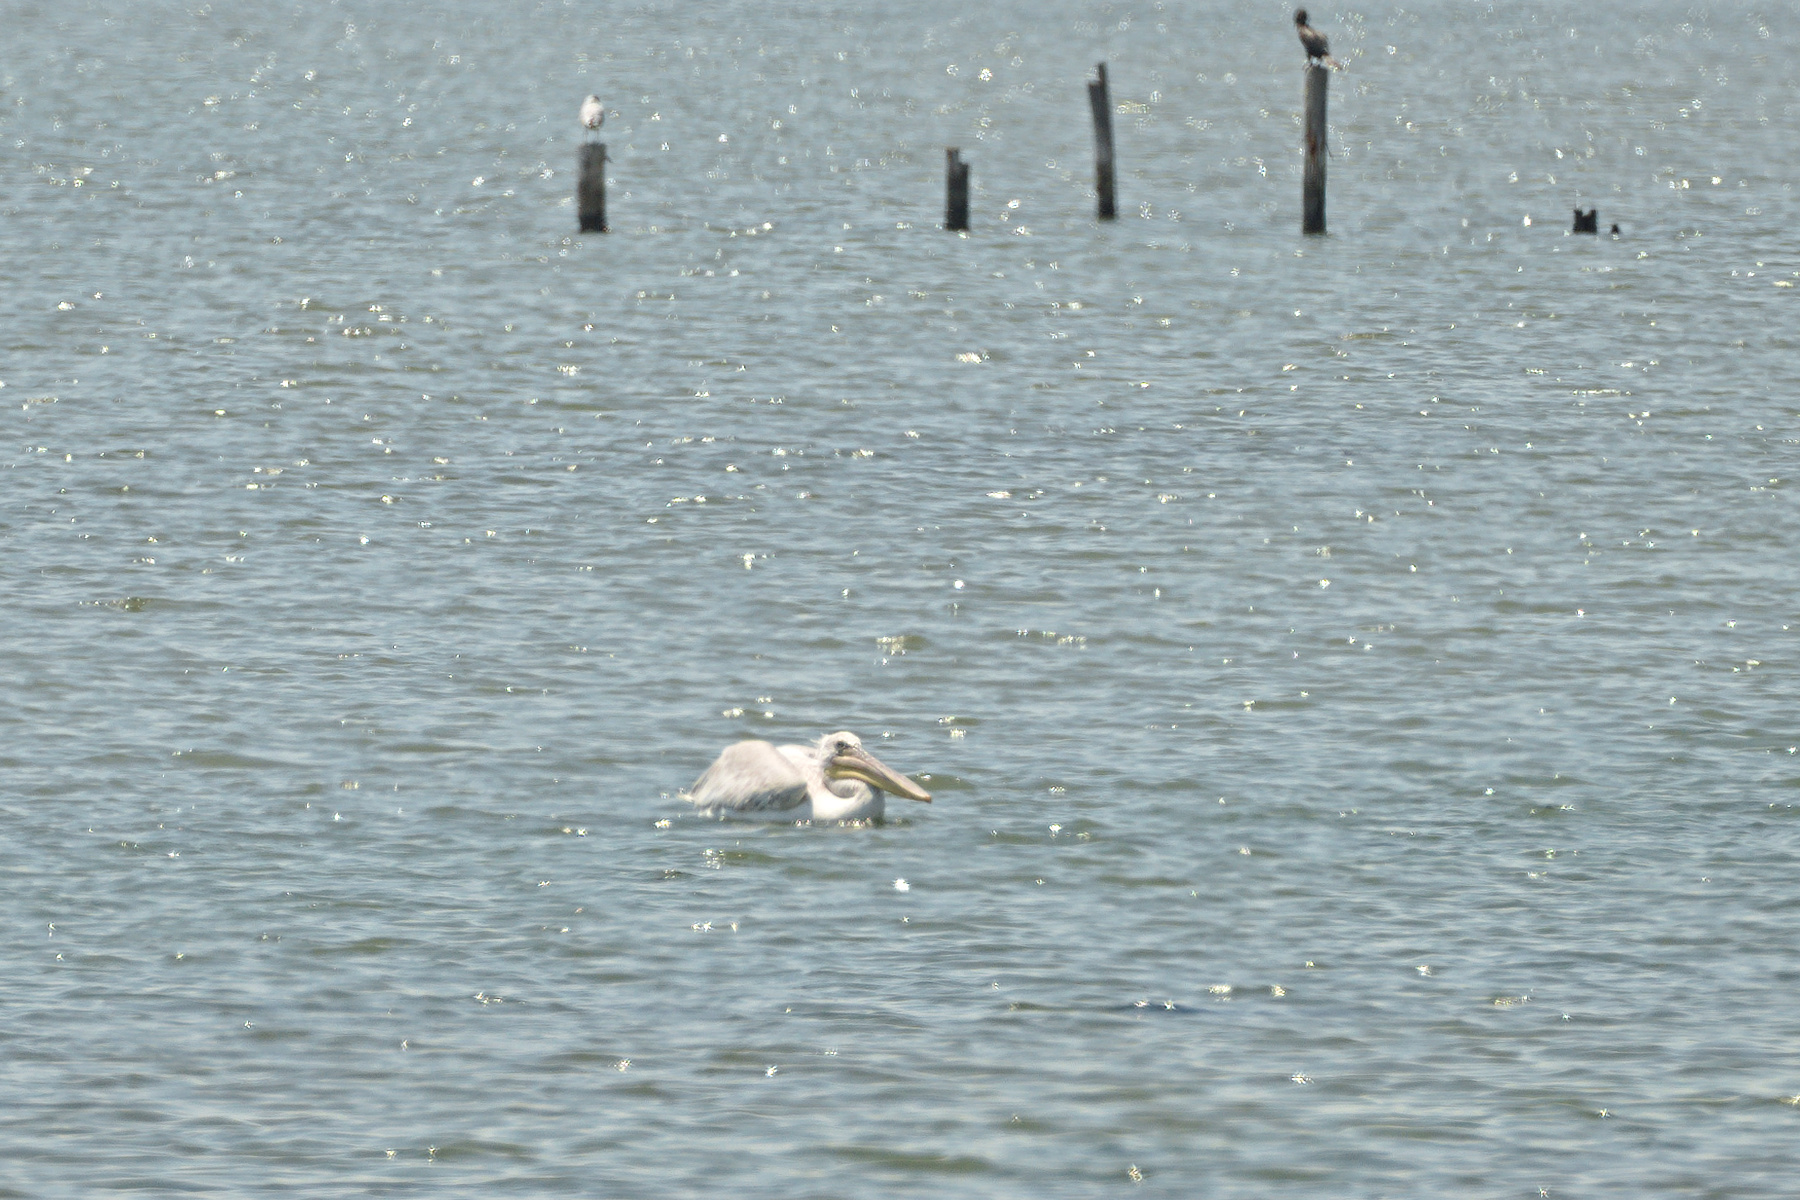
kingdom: Animalia
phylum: Chordata
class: Aves
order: Pelecaniformes
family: Pelecanidae
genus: Pelecanus
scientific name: Pelecanus crispus
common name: Dalmatian pelican
